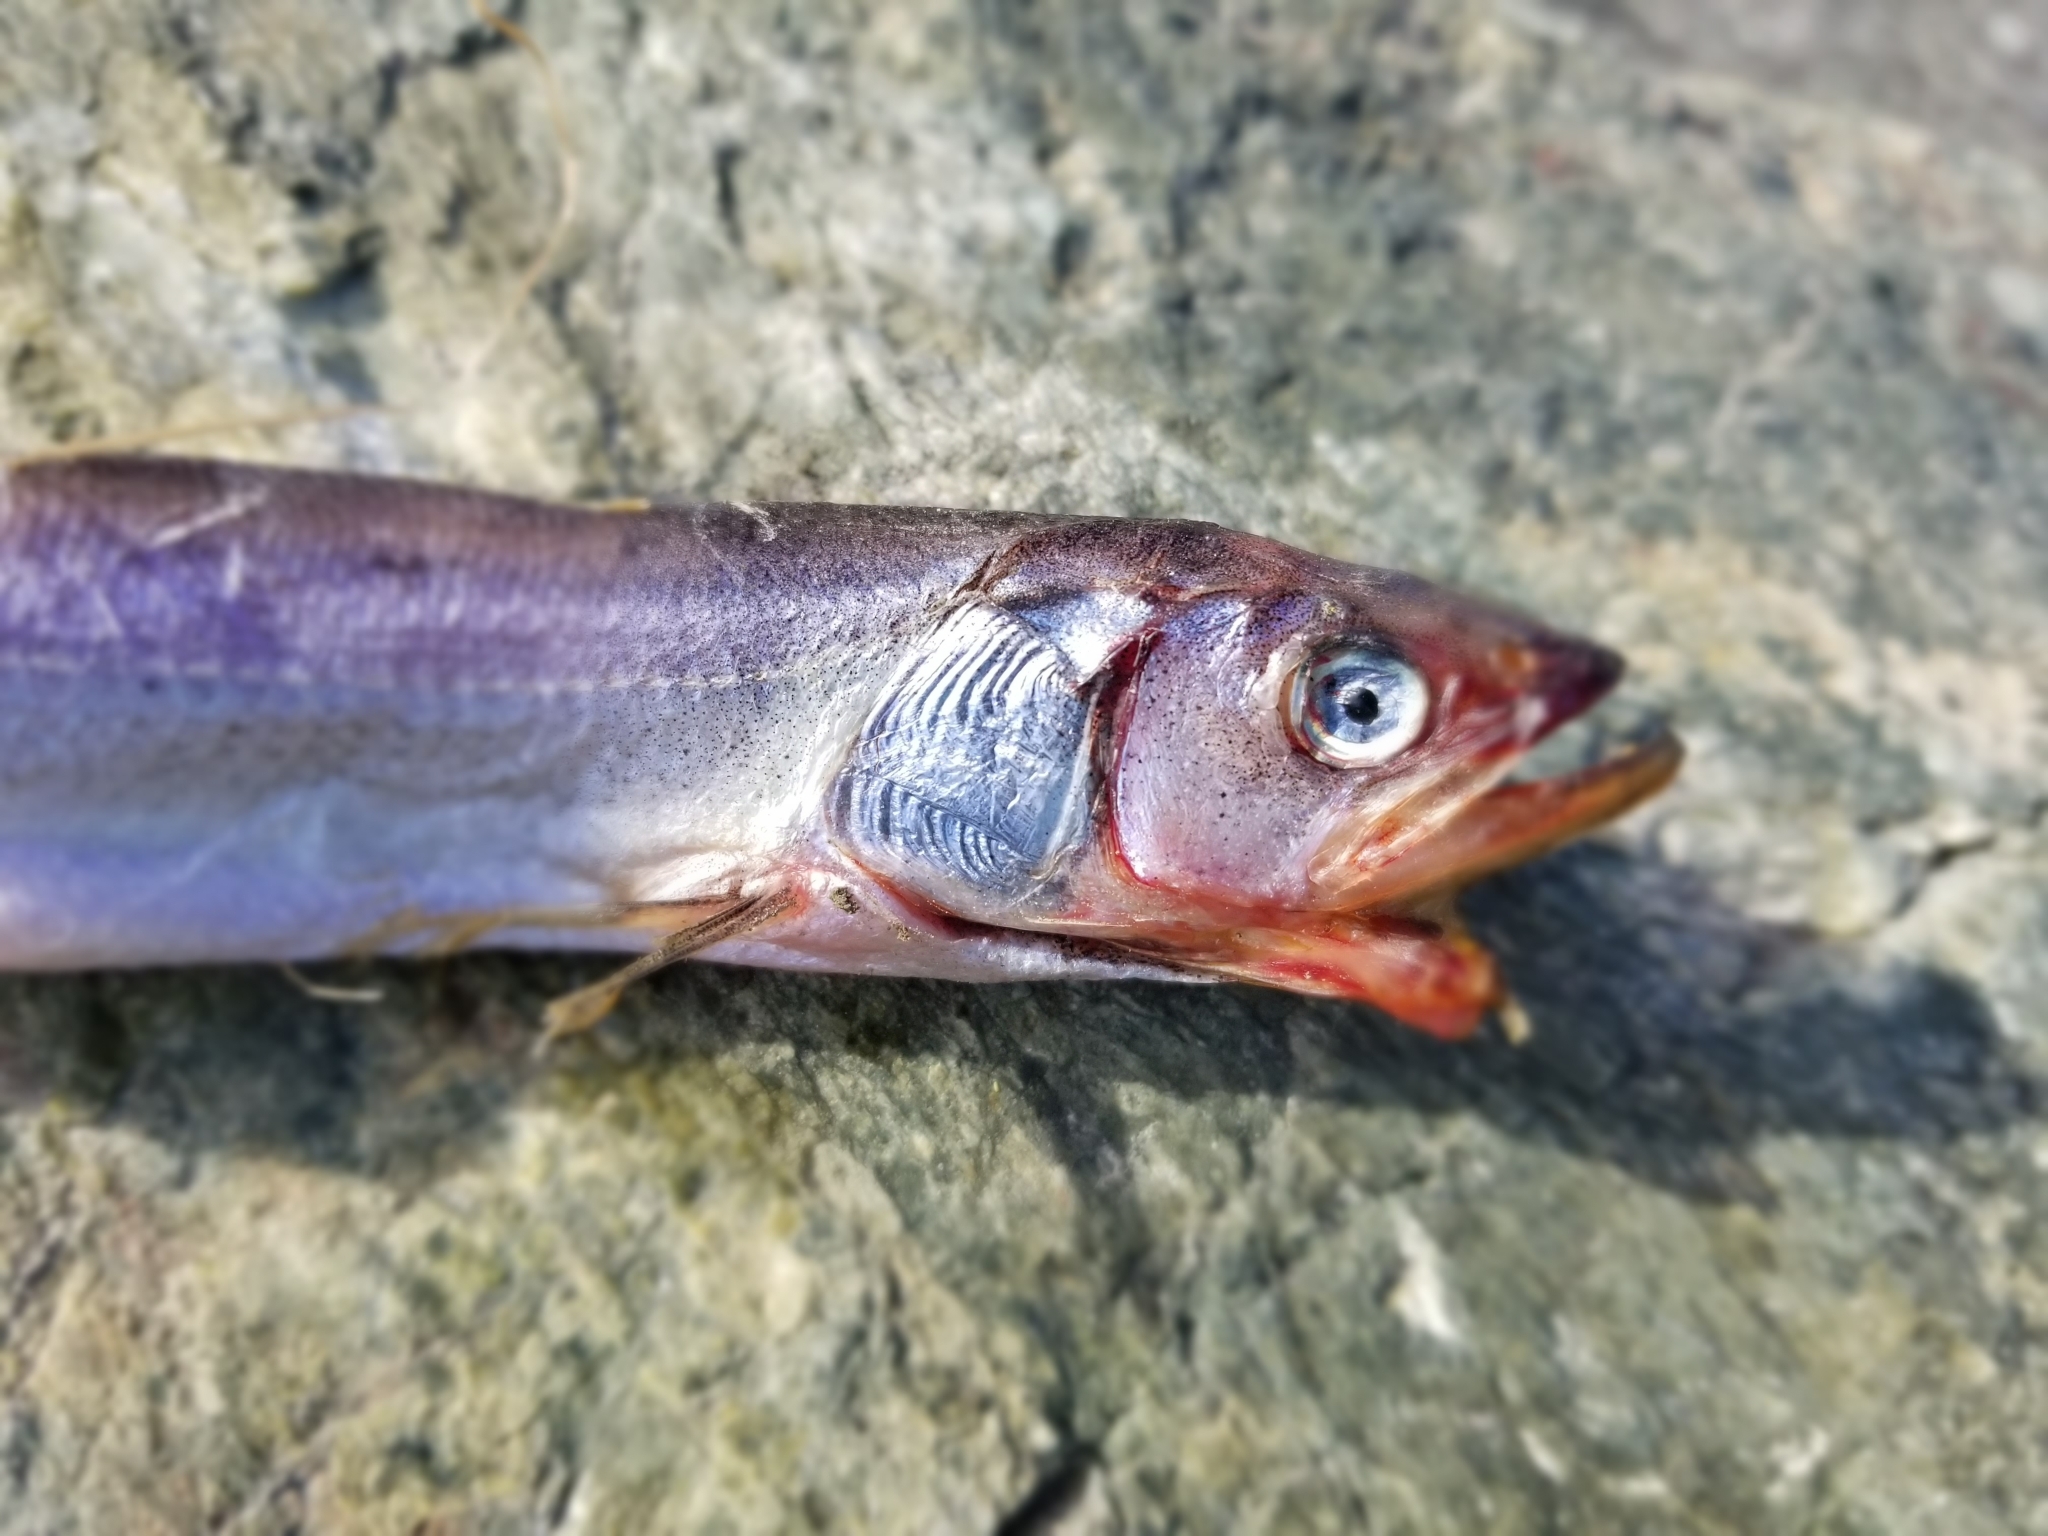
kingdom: Animalia
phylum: Chordata
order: Osmeriformes
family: Osmeridae
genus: Thaleichthys
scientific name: Thaleichthys pacificus
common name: Eulachon
